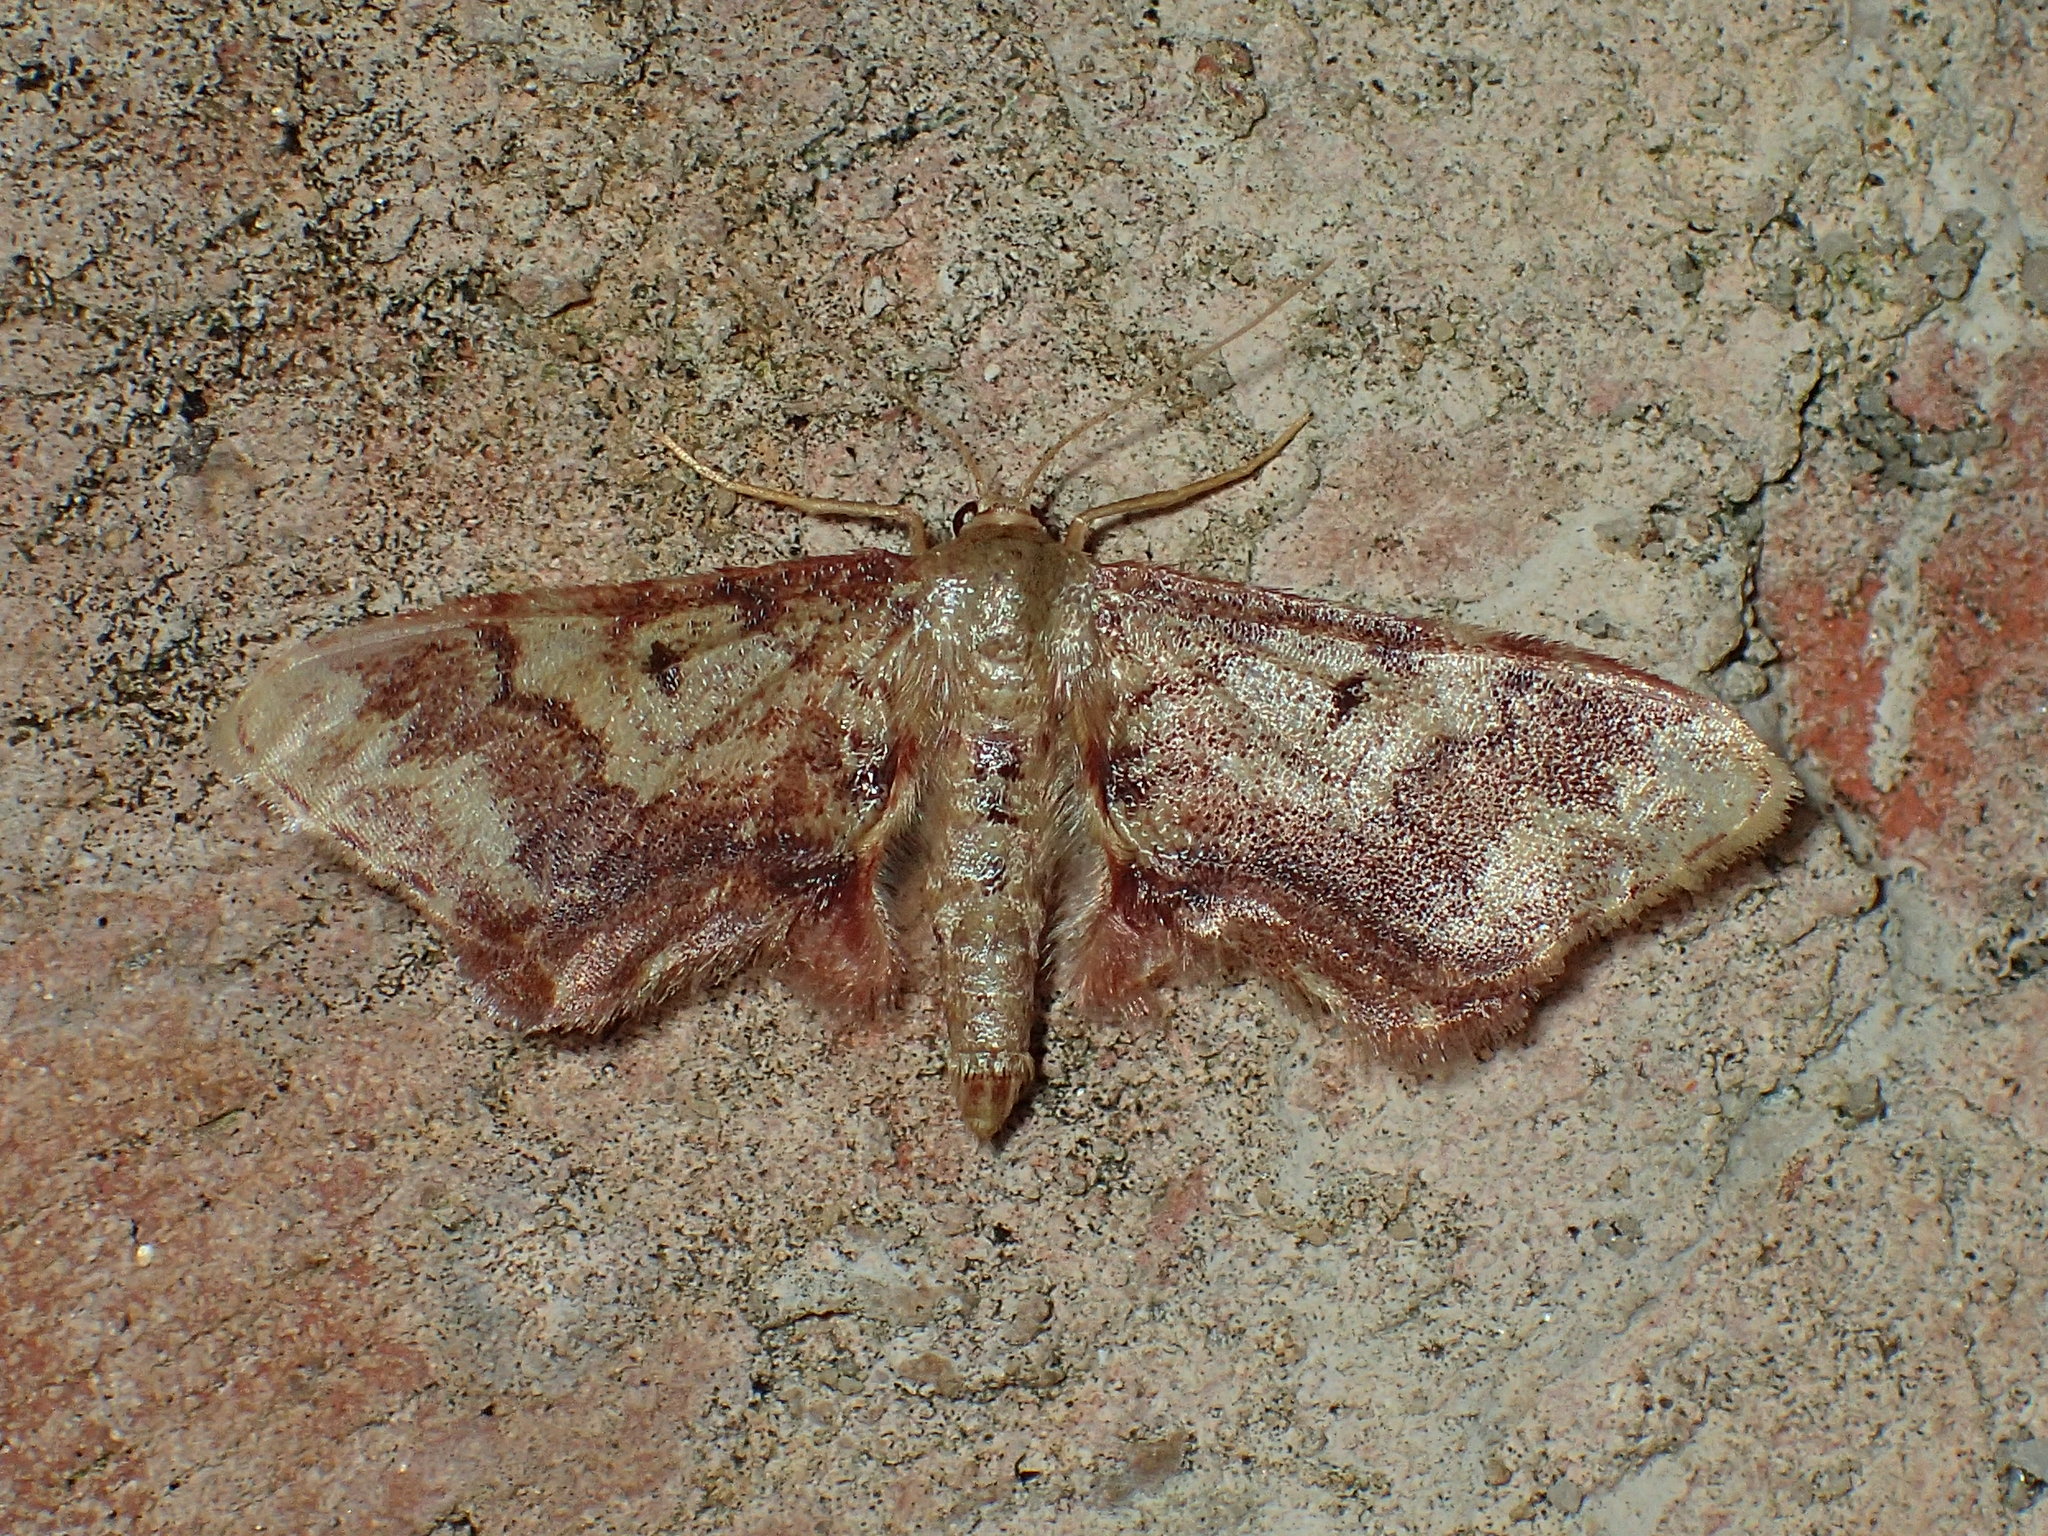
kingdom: Animalia
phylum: Arthropoda
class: Insecta
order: Lepidoptera
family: Geometridae
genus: Idaea
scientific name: Idaea furciferata
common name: Notch-winged wave
